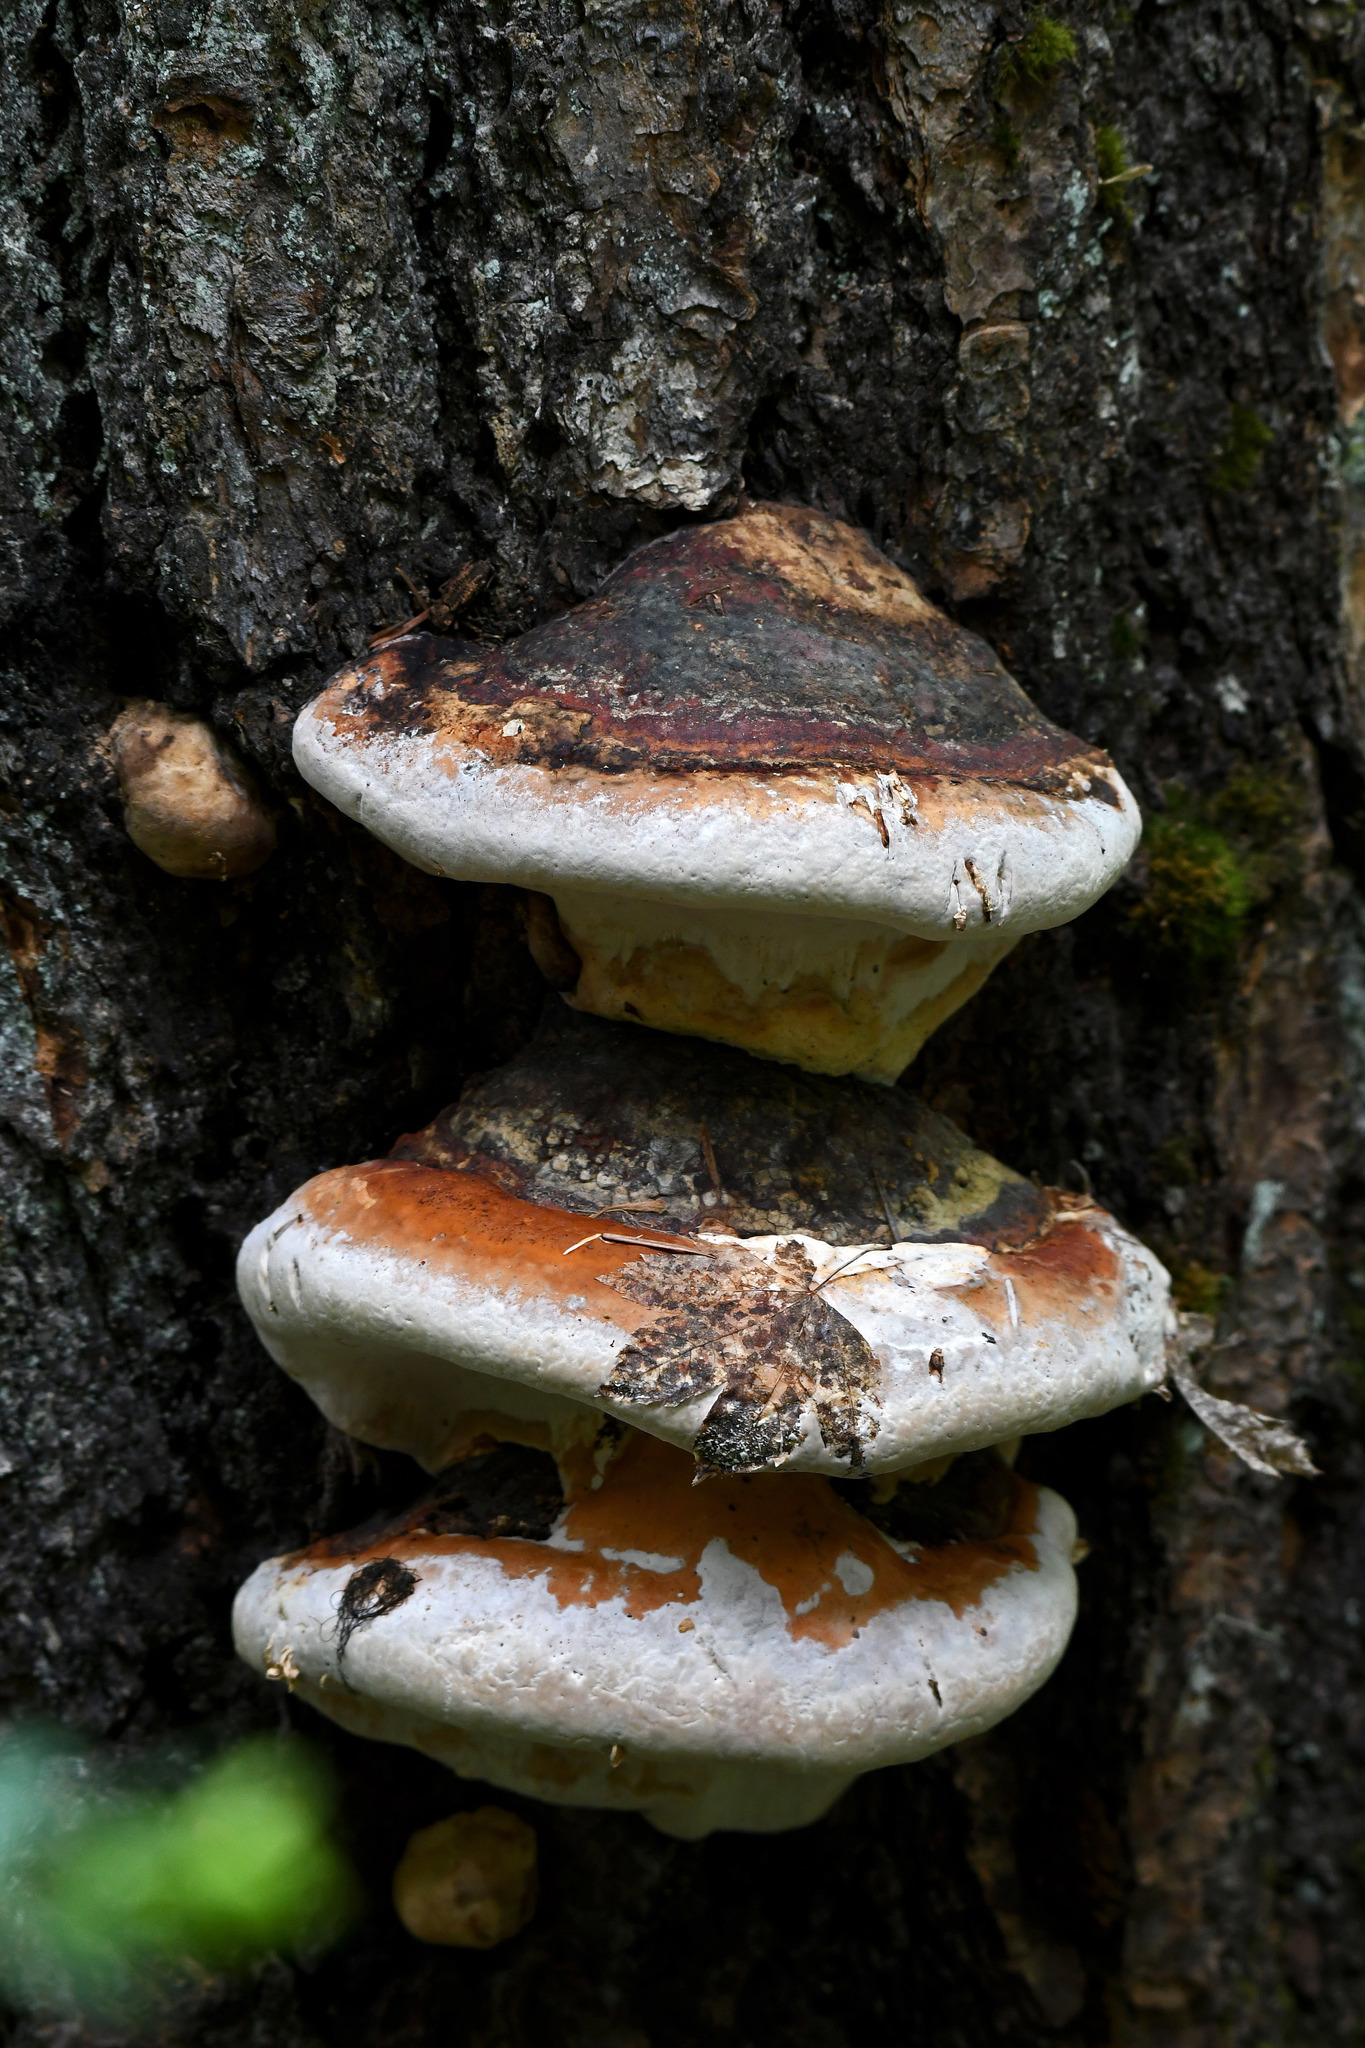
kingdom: Fungi
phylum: Basidiomycota
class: Agaricomycetes
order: Polyporales
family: Fomitopsidaceae
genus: Fomitopsis
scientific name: Fomitopsis mounceae
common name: Northern red belt
